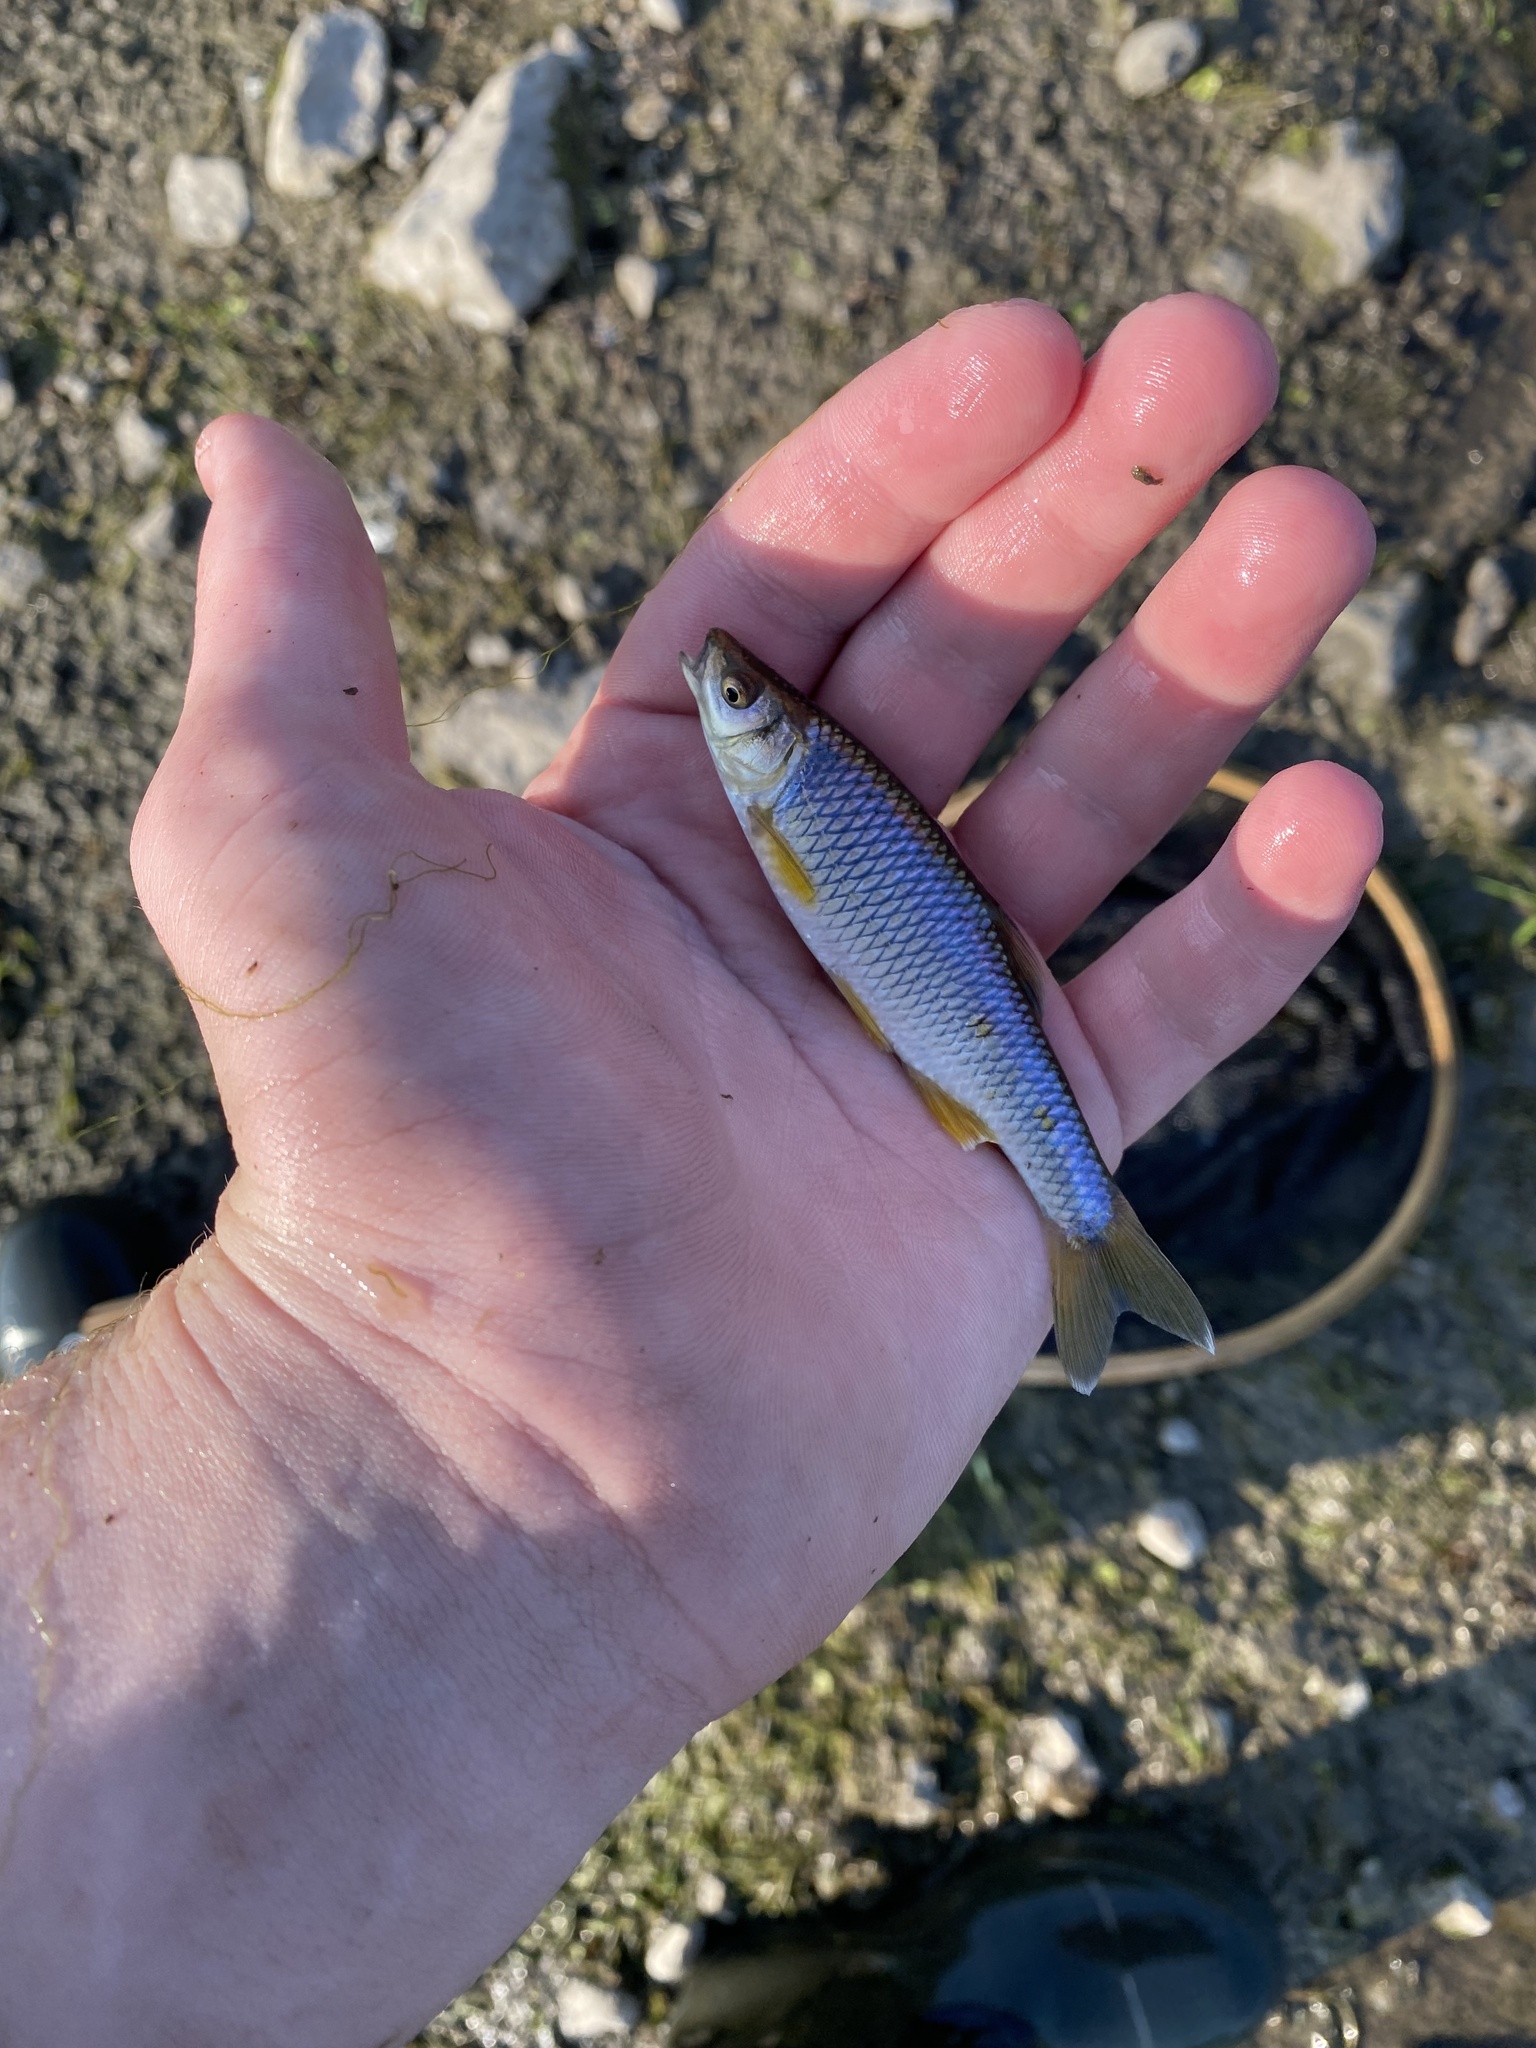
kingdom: Animalia
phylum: Chordata
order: Cypriniformes
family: Cyprinidae
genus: Cyprinella
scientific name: Cyprinella spiloptera
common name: Spotfin shiner
